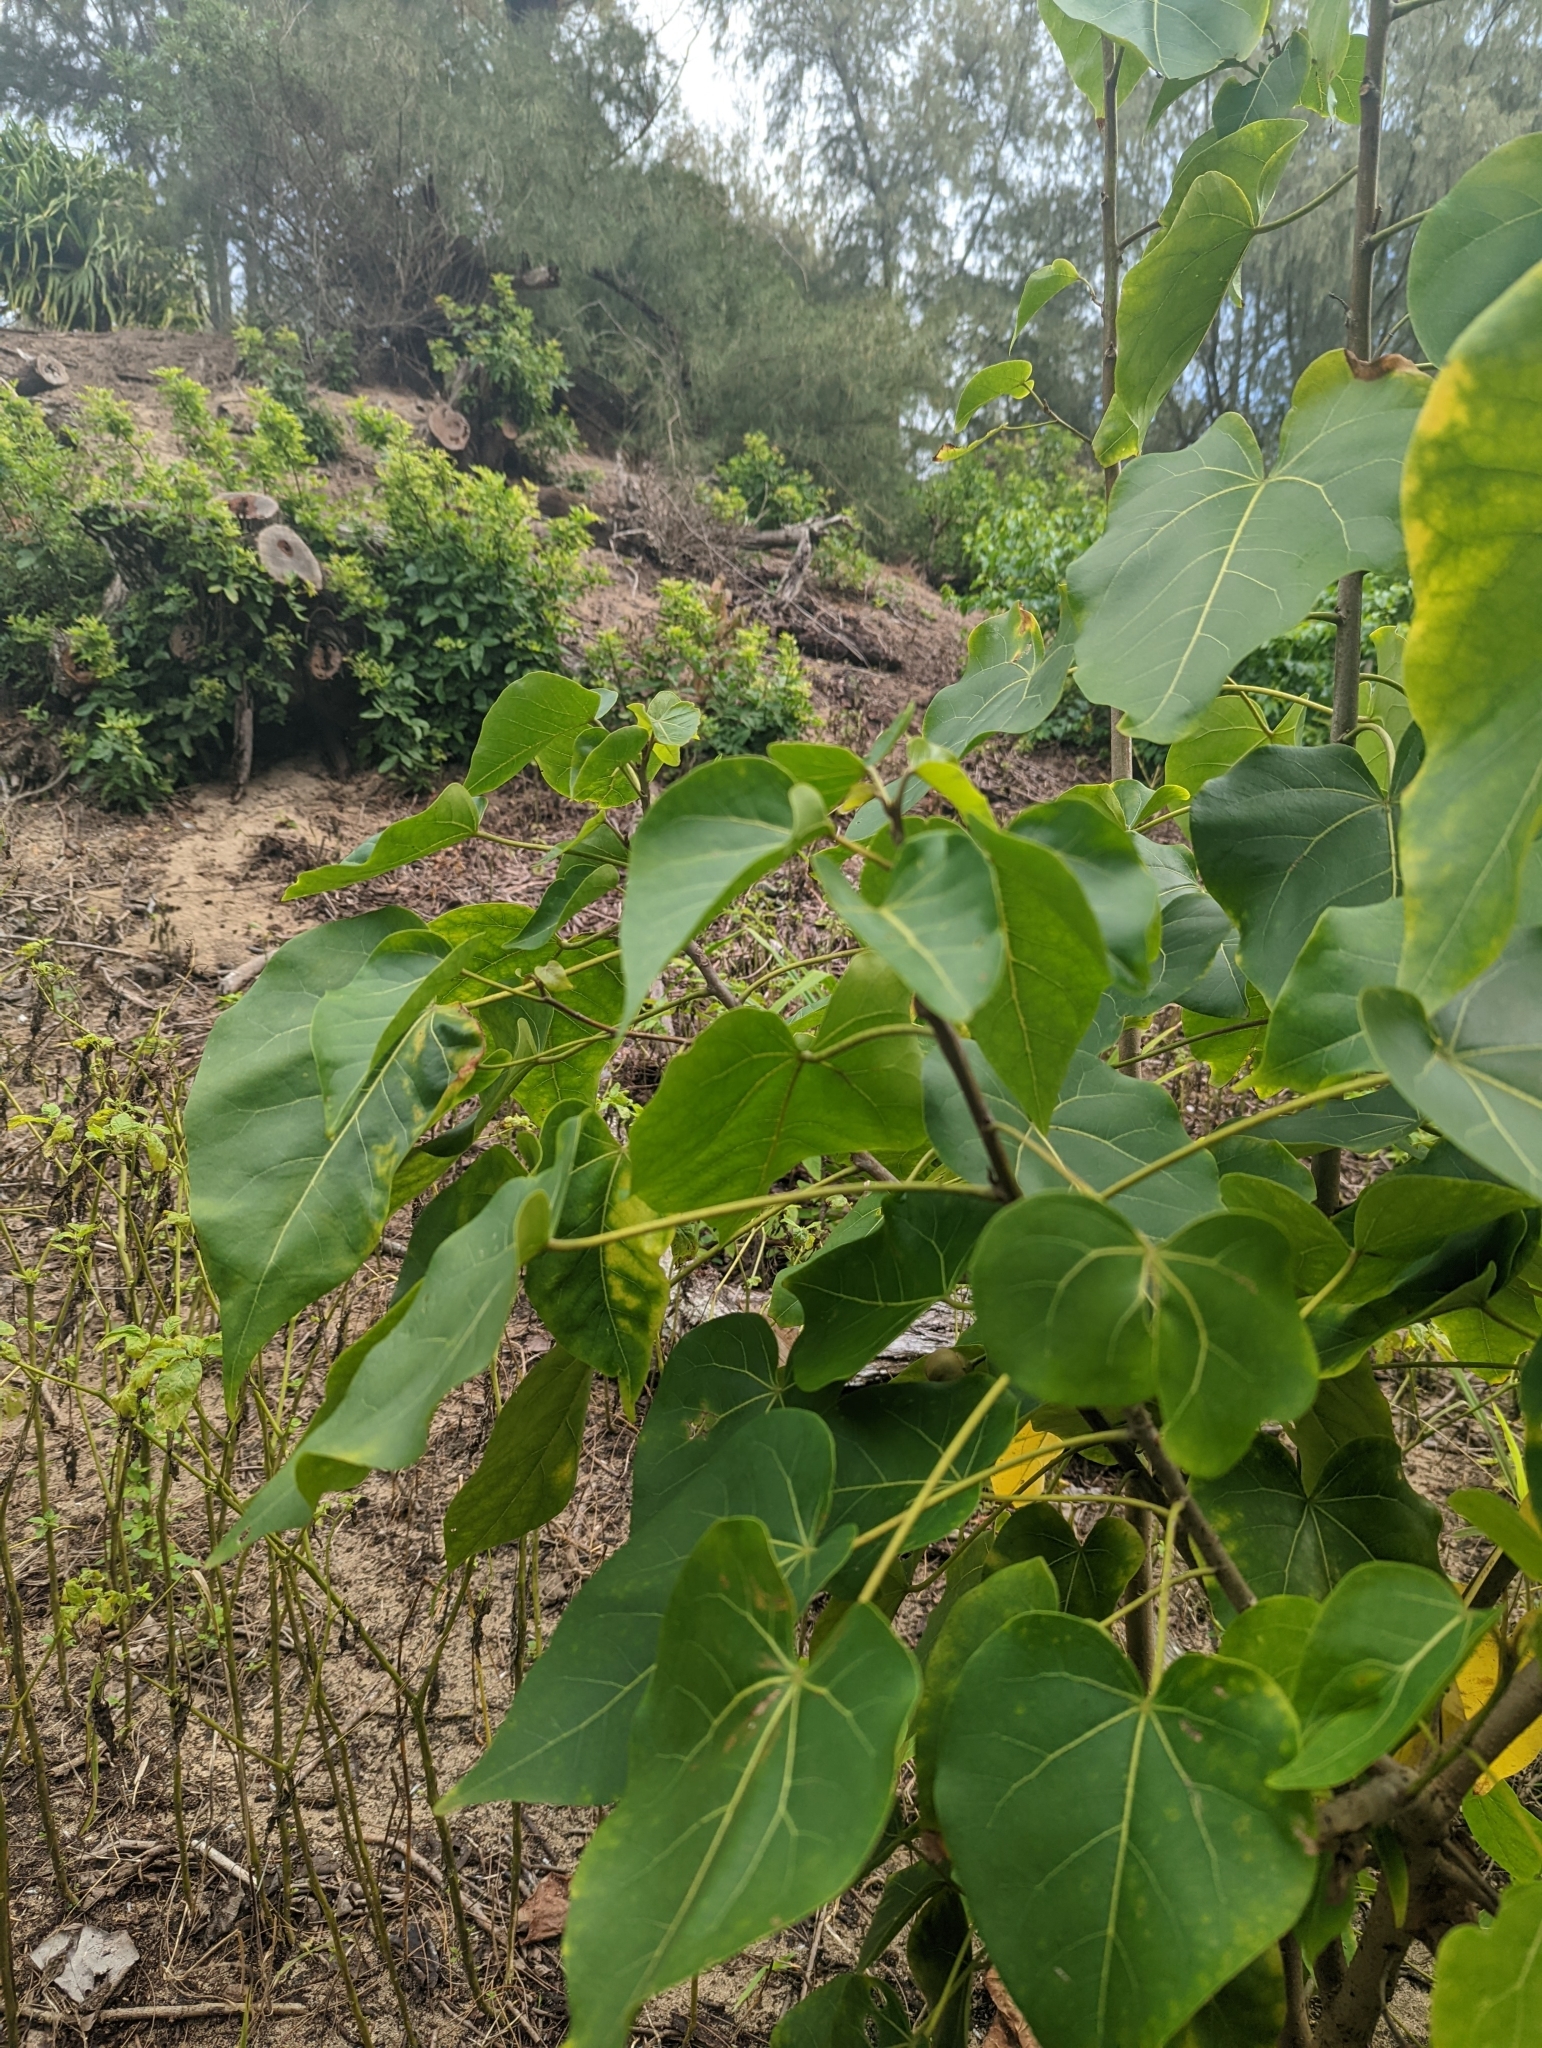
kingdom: Plantae
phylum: Tracheophyta
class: Magnoliopsida
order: Malvales
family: Malvaceae
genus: Thespesia
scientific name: Thespesia populnea
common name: Seaside mahoe
